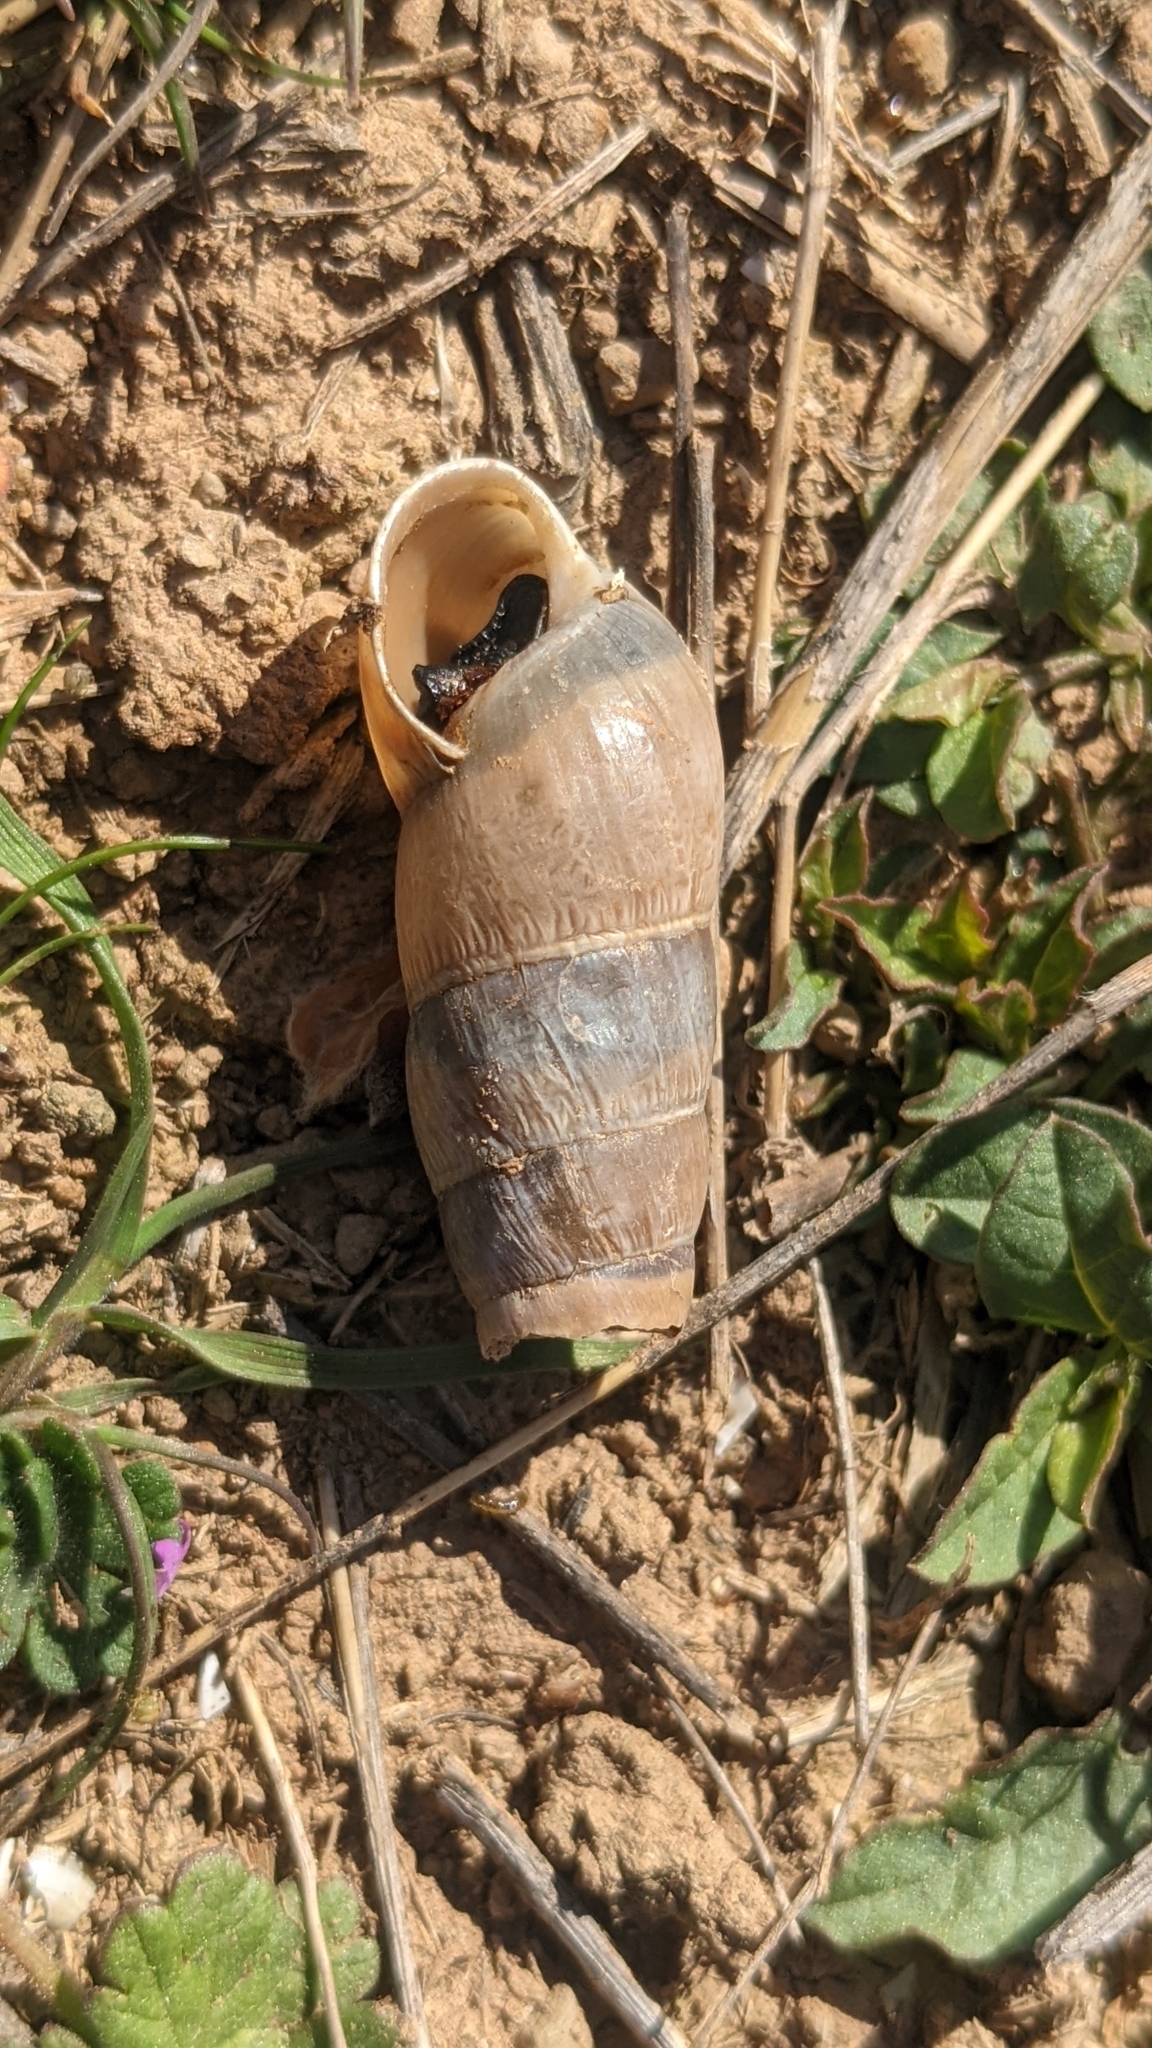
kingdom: Animalia
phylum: Mollusca
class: Gastropoda
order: Stylommatophora
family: Achatinidae
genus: Rumina
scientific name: Rumina decollata
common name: Decollate snail
